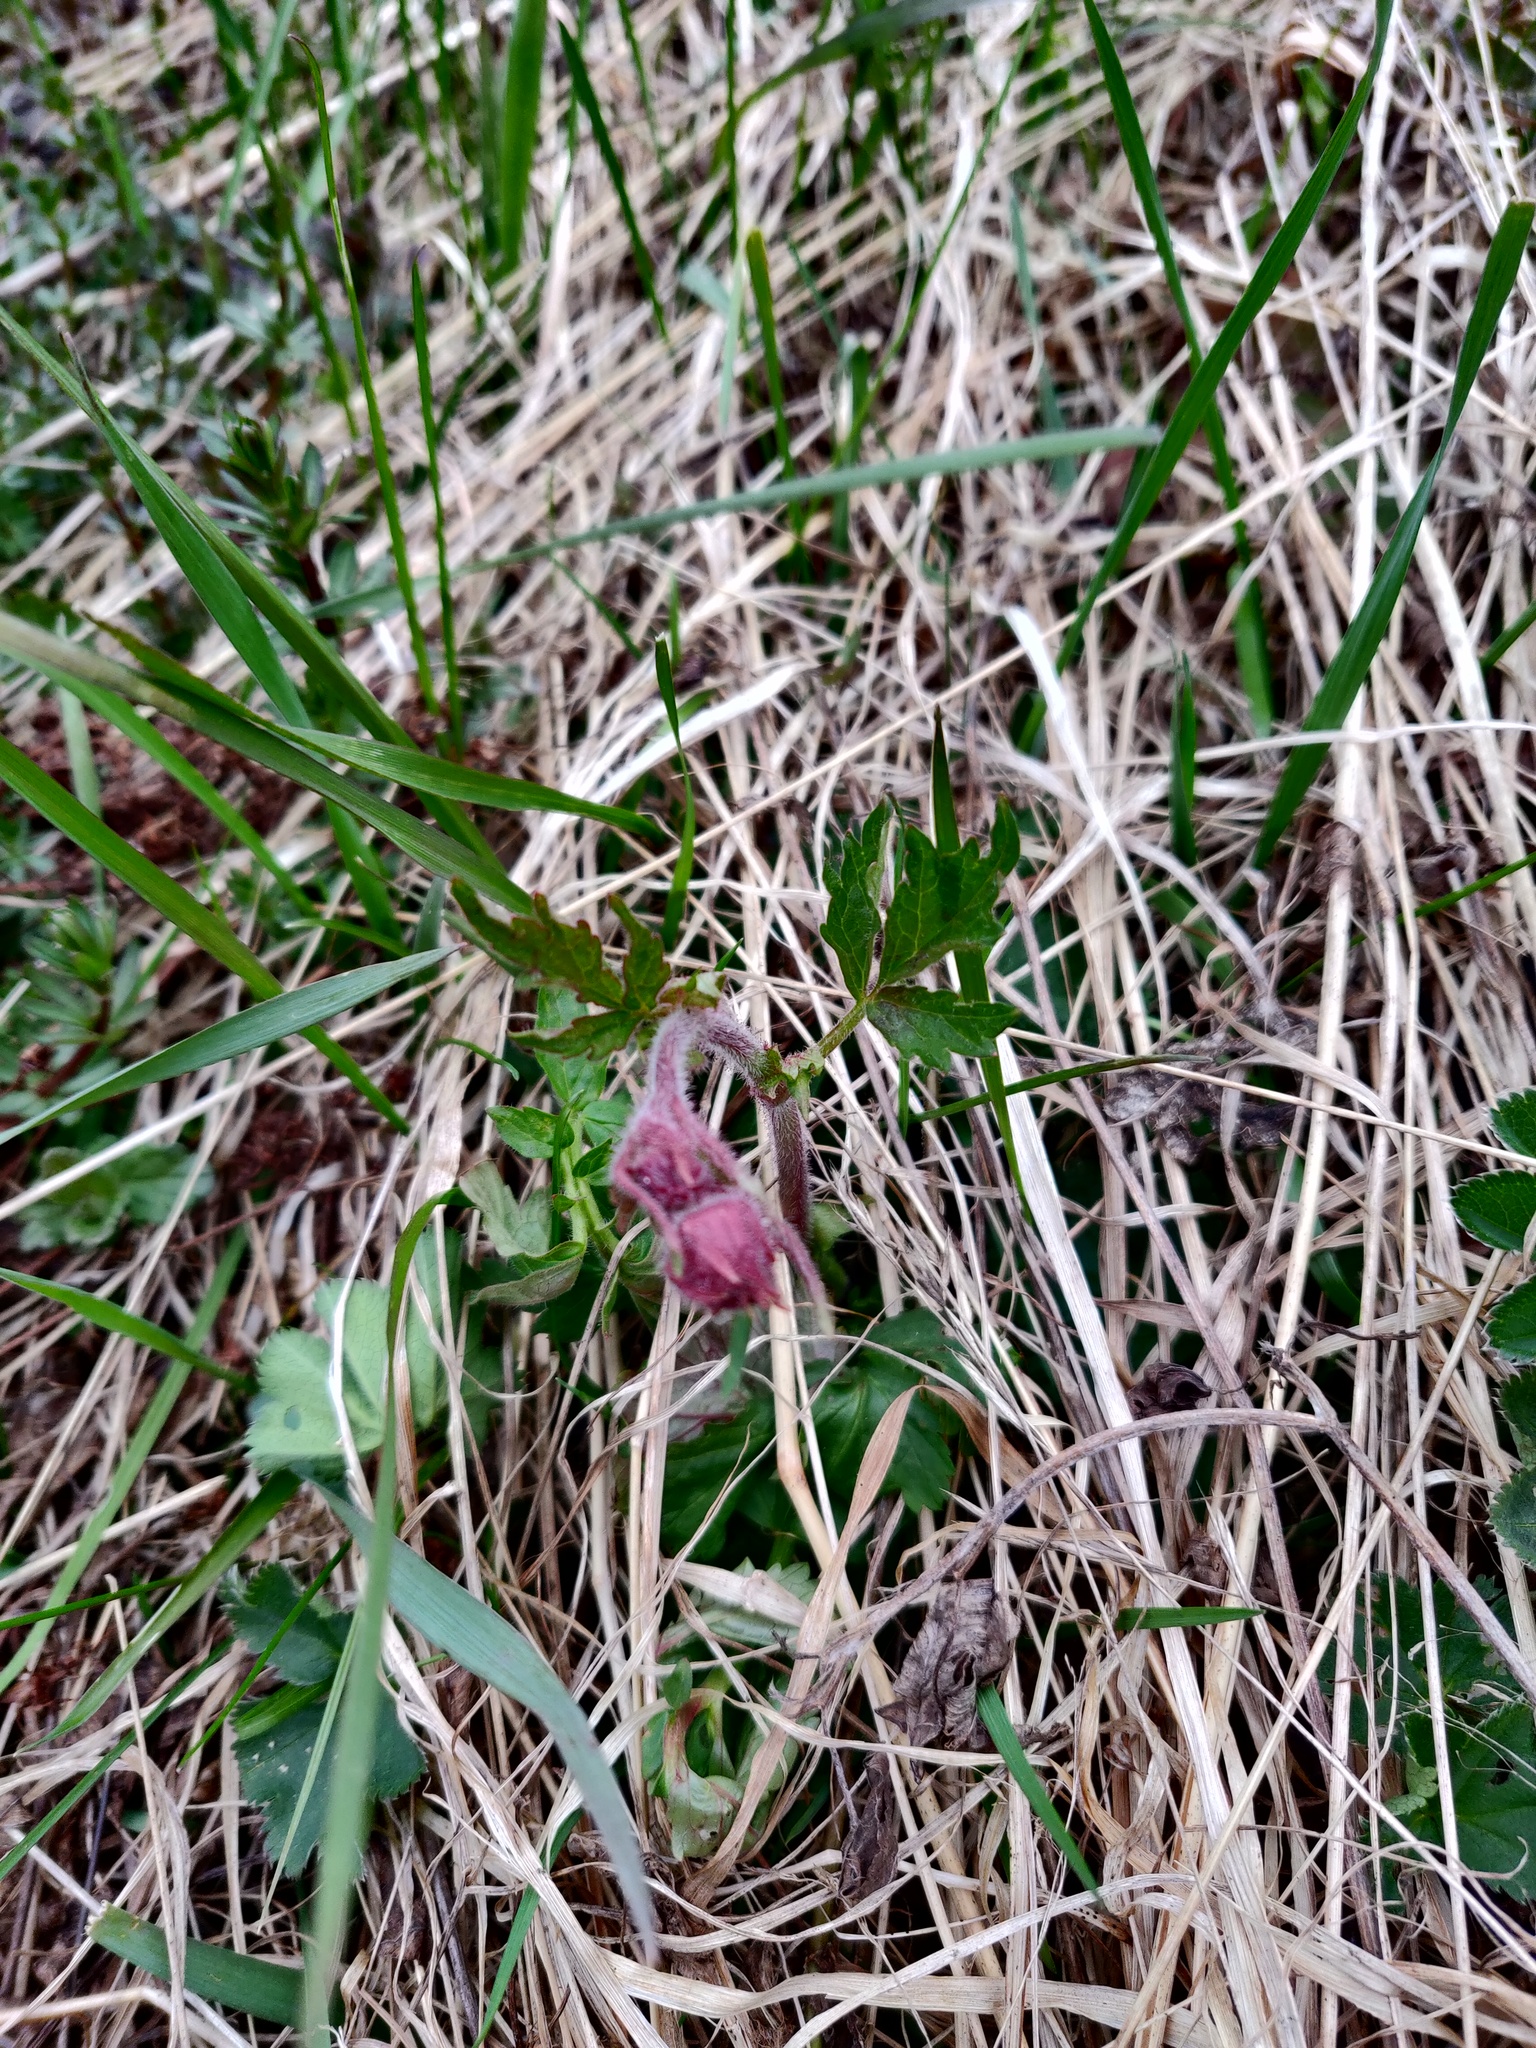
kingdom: Plantae
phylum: Tracheophyta
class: Magnoliopsida
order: Rosales
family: Rosaceae
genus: Geum
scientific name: Geum rivale
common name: Water avens
